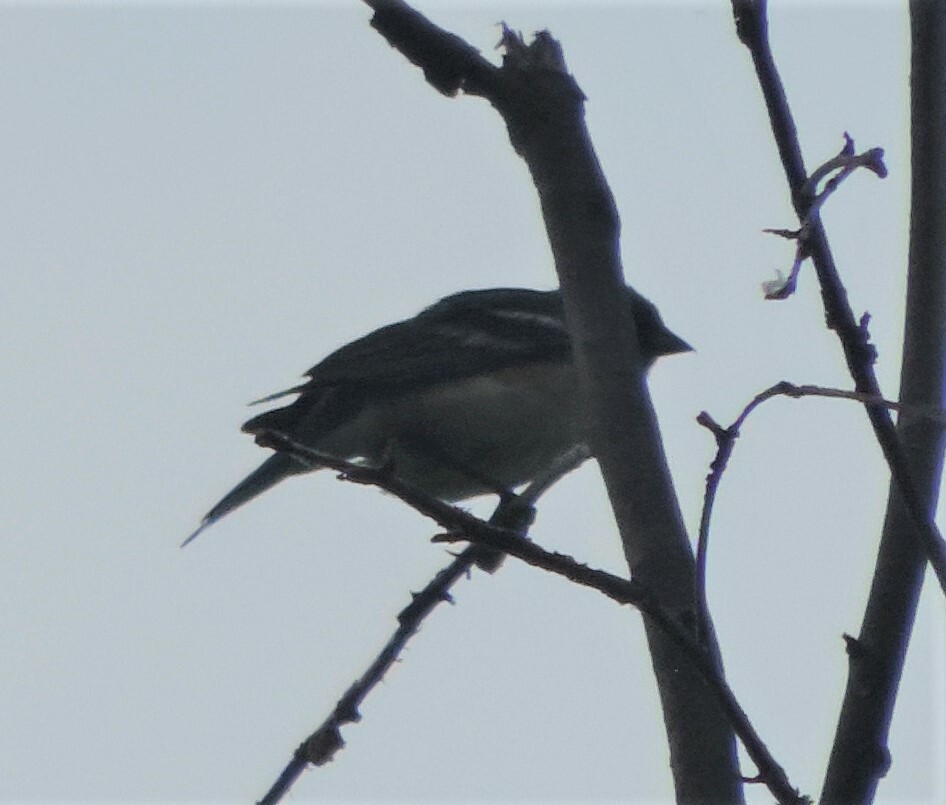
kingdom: Animalia
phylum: Chordata
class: Aves
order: Passeriformes
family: Cardinalidae
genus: Passerina
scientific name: Passerina amoena
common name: Lazuli bunting
